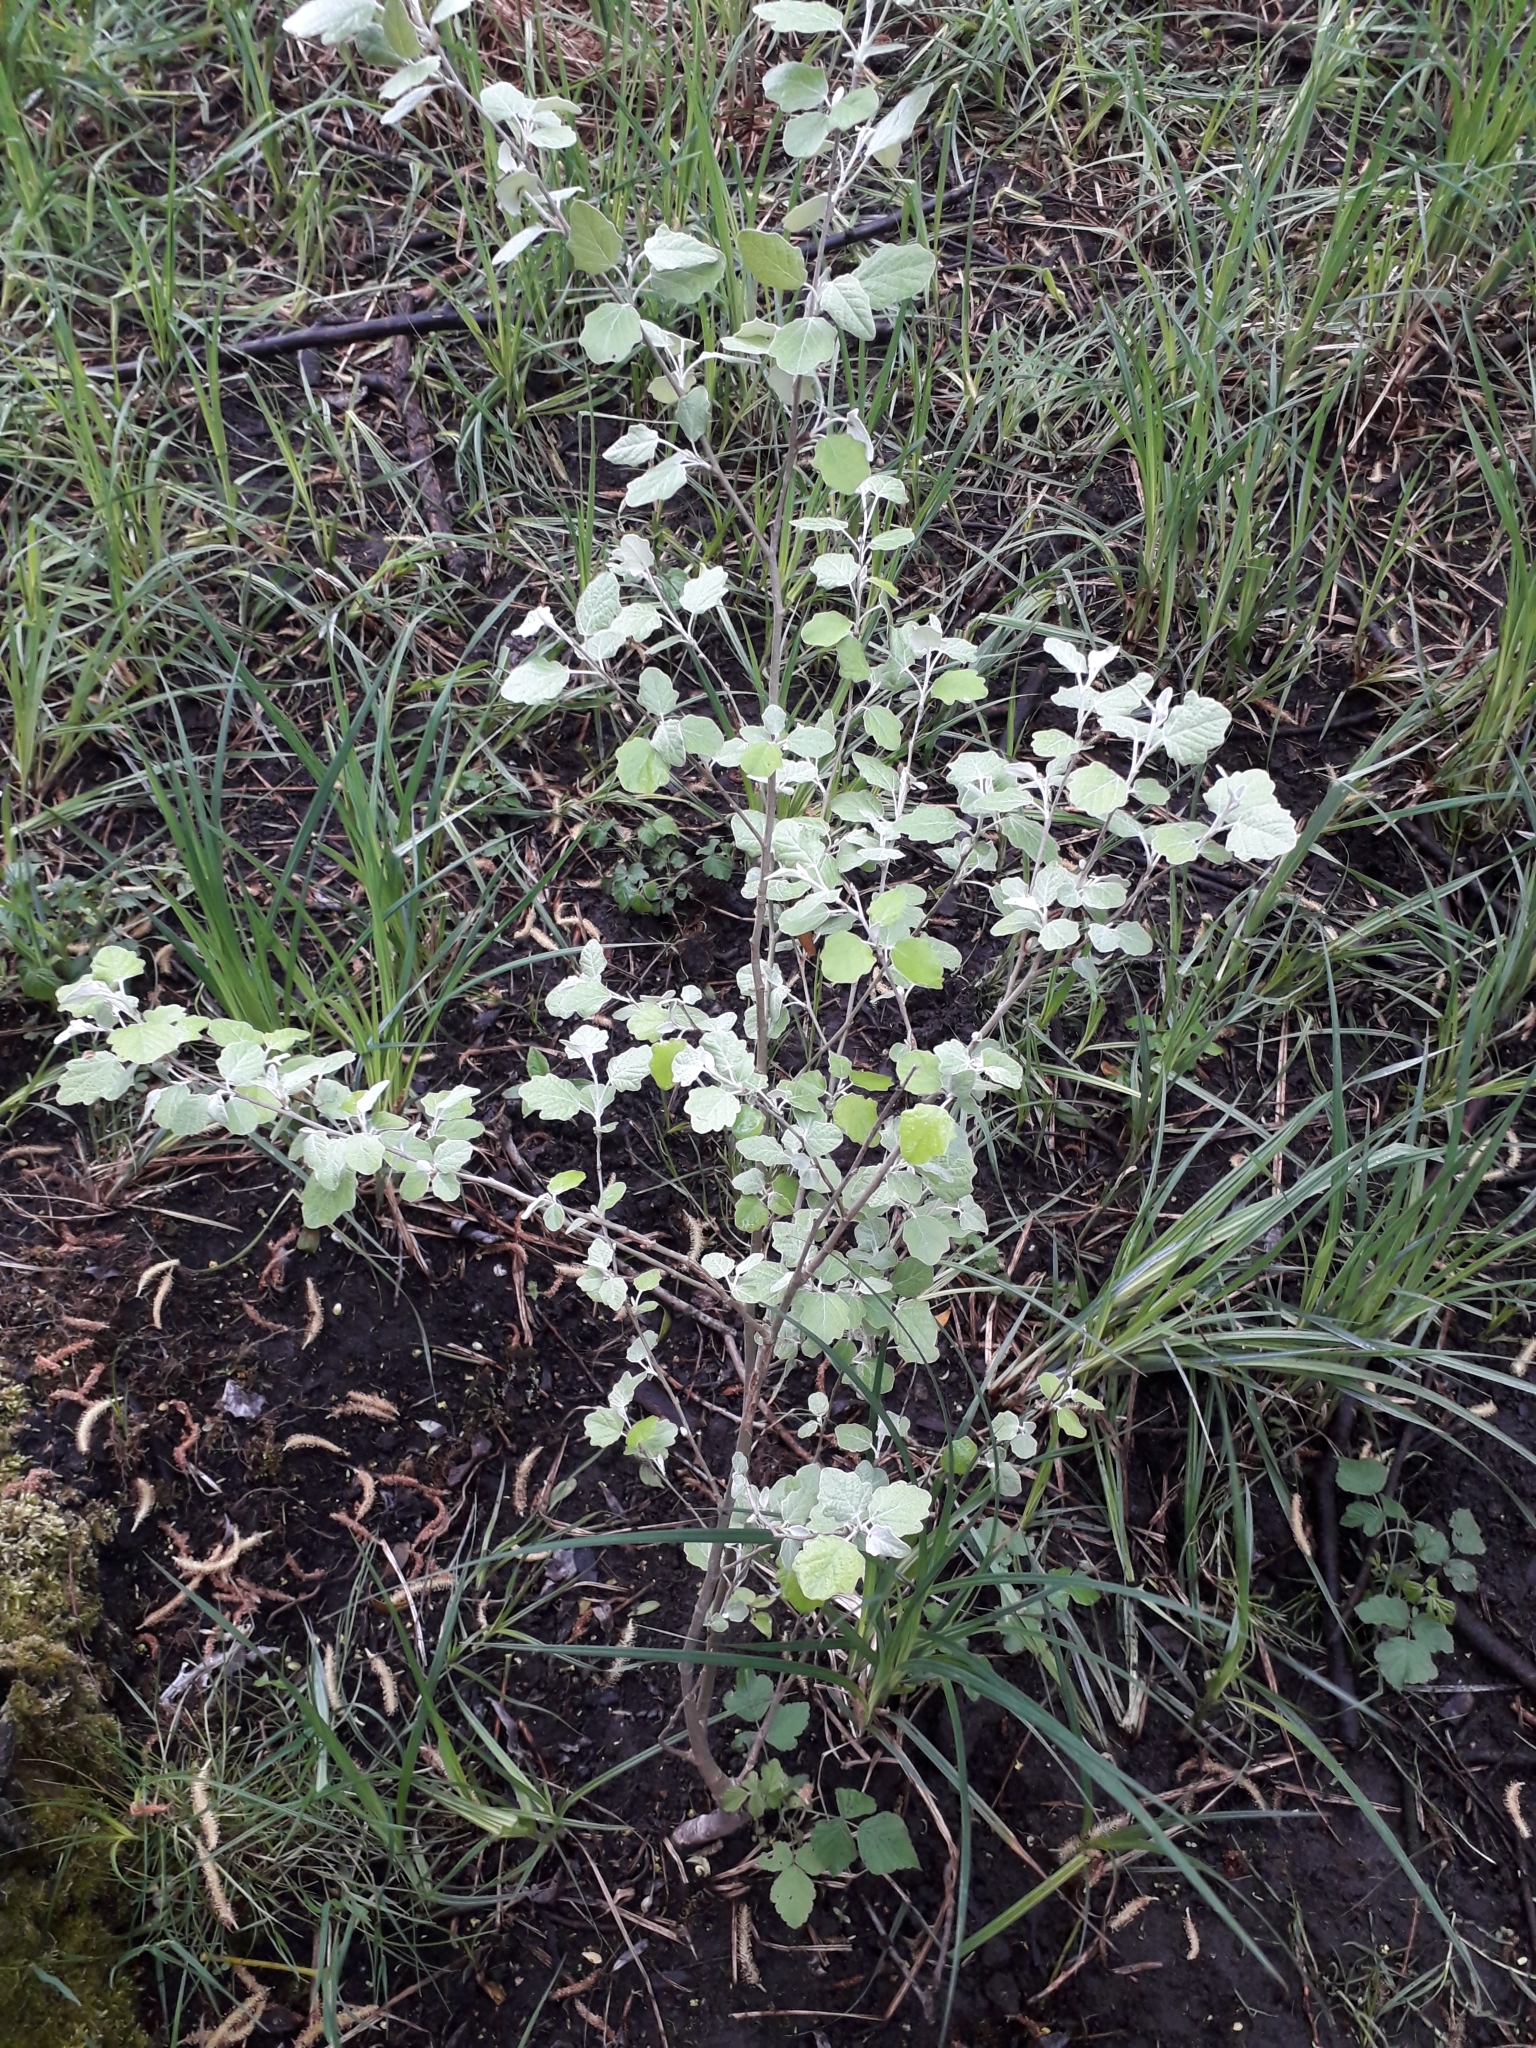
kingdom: Plantae
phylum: Tracheophyta
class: Magnoliopsida
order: Malpighiales
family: Salicaceae
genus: Populus
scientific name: Populus alba
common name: White poplar
